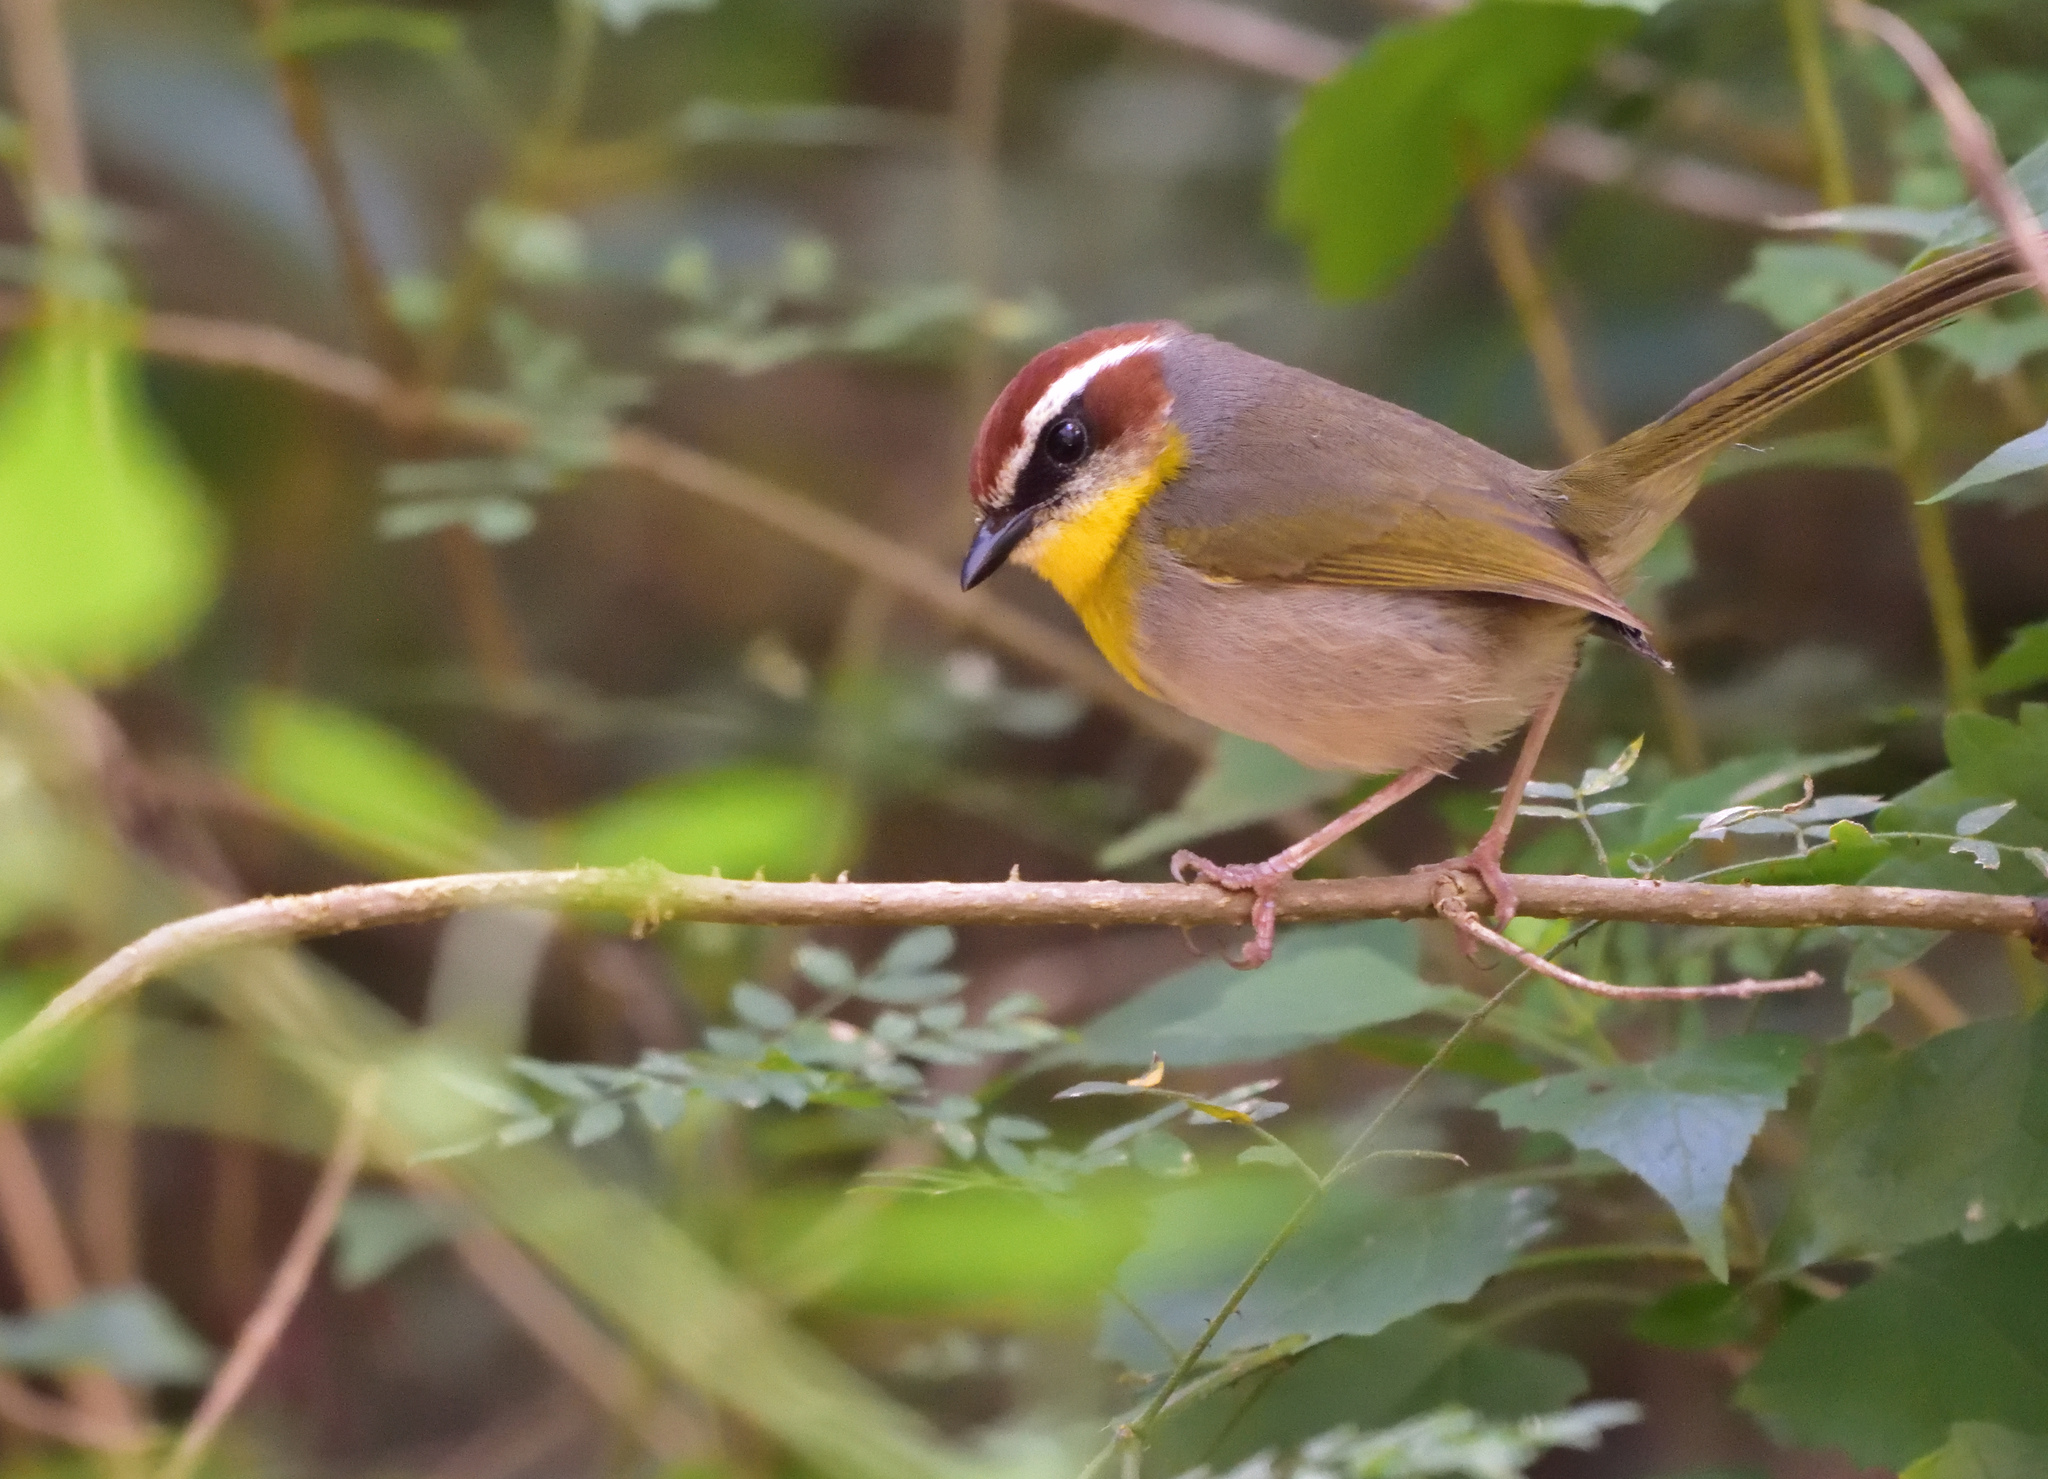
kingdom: Animalia
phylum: Chordata
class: Aves
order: Passeriformes
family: Parulidae
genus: Basileuterus
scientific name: Basileuterus rufifrons
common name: Rufous-capped warbler
